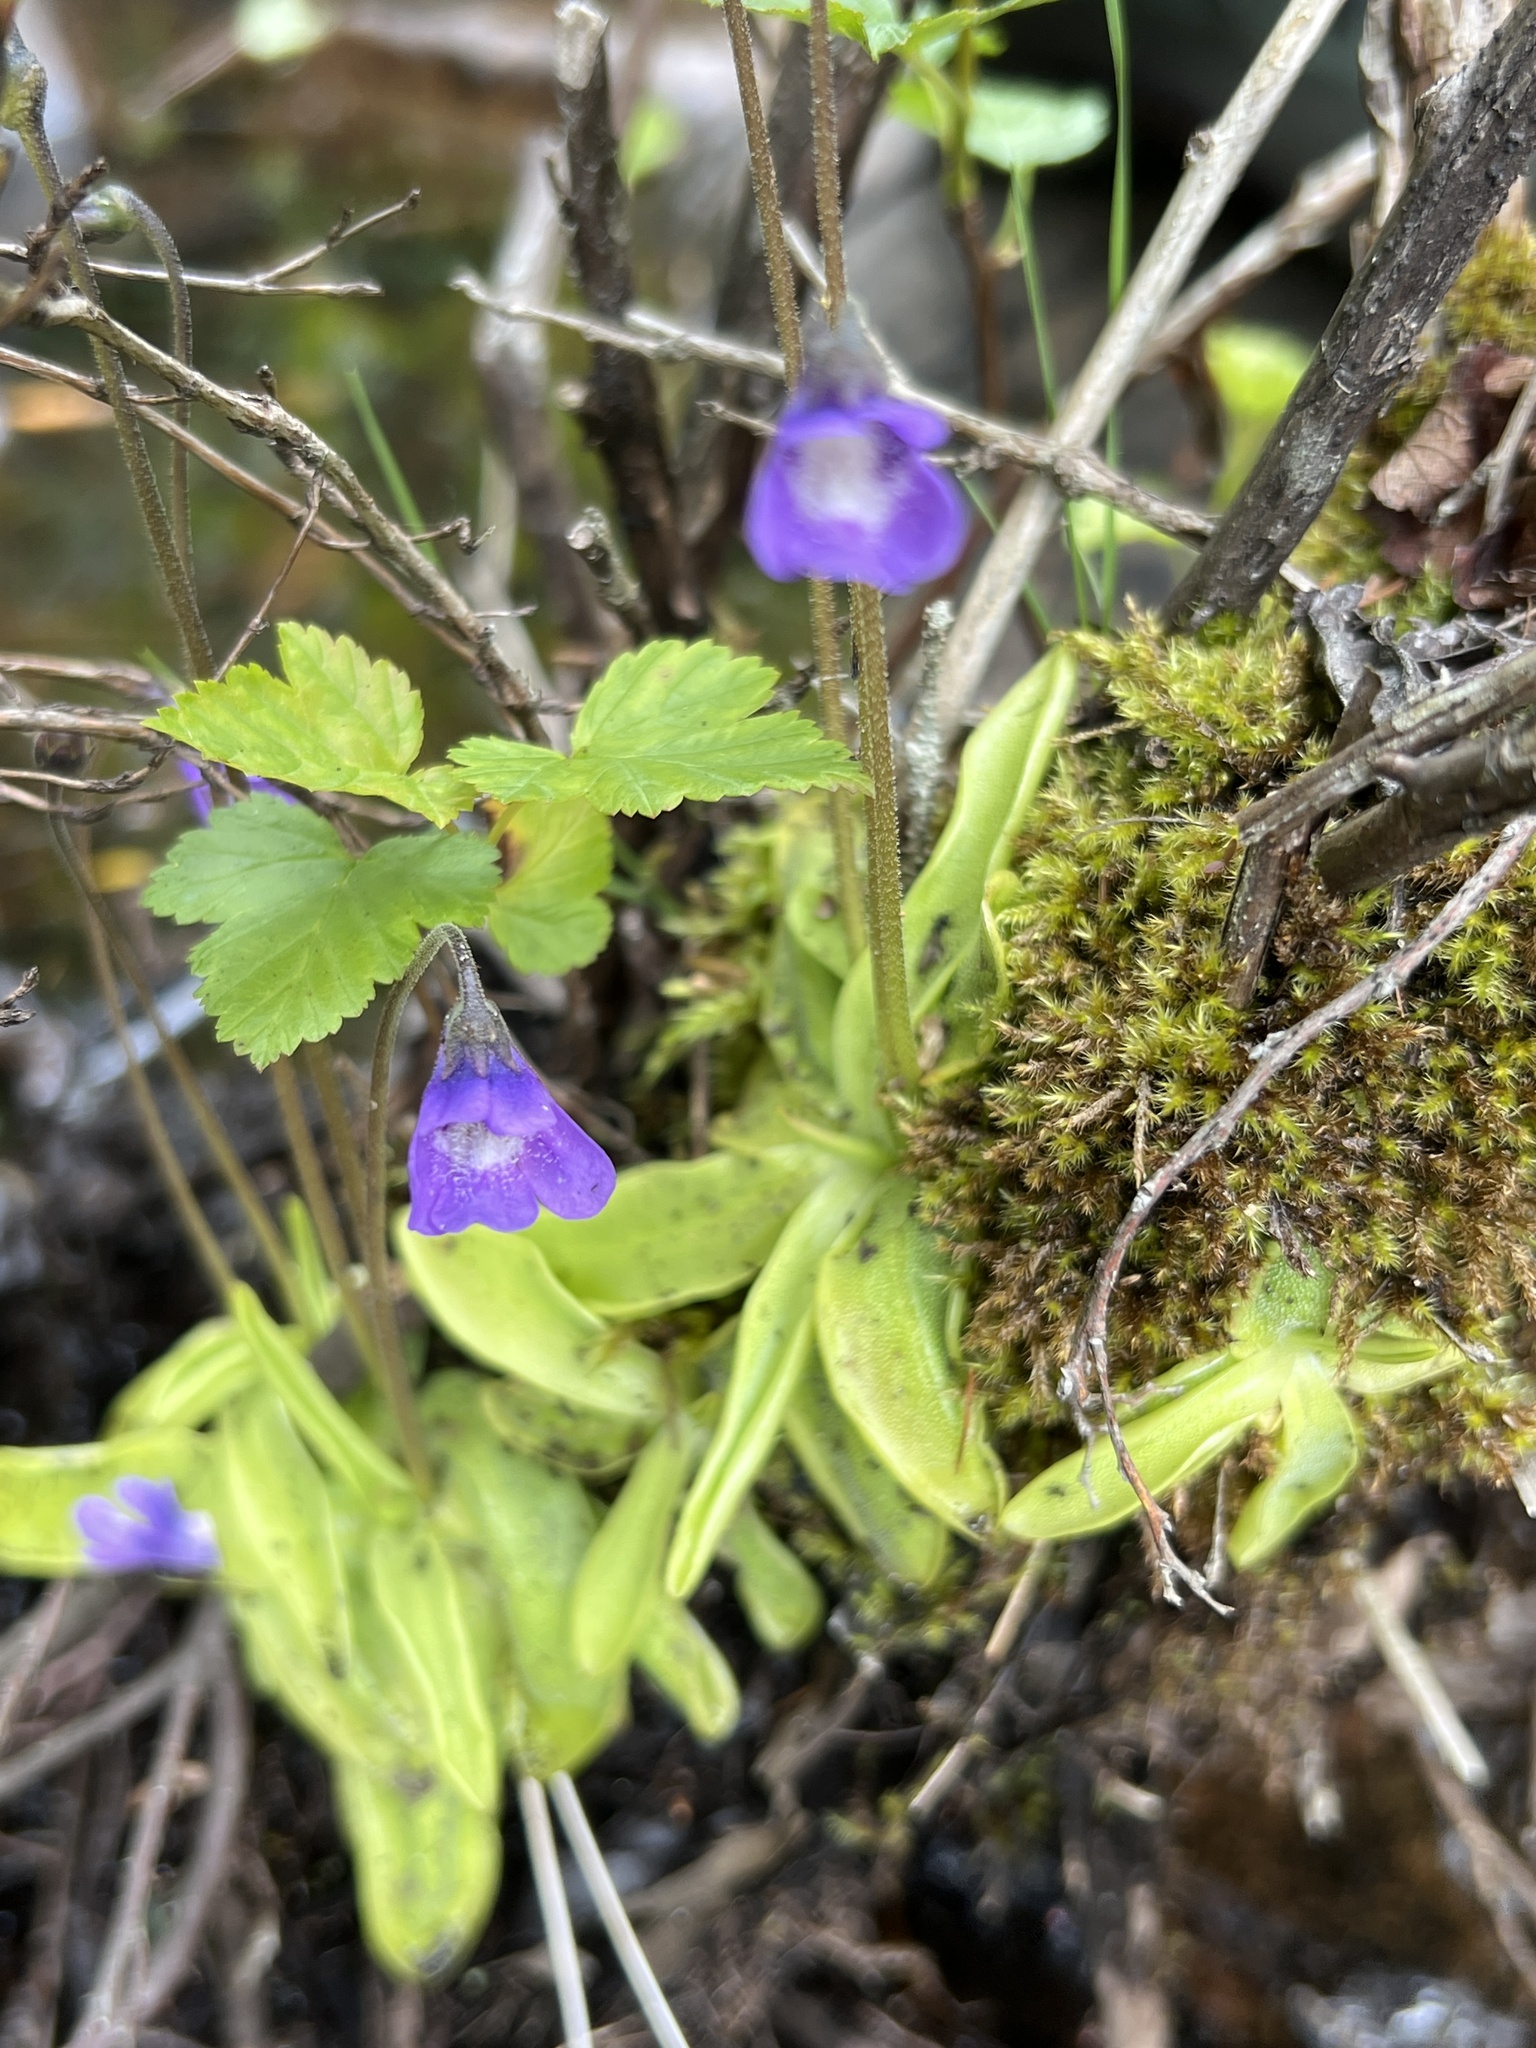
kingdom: Plantae
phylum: Tracheophyta
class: Magnoliopsida
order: Lamiales
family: Lentibulariaceae
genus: Pinguicula
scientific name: Pinguicula vulgaris
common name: Common butterwort
